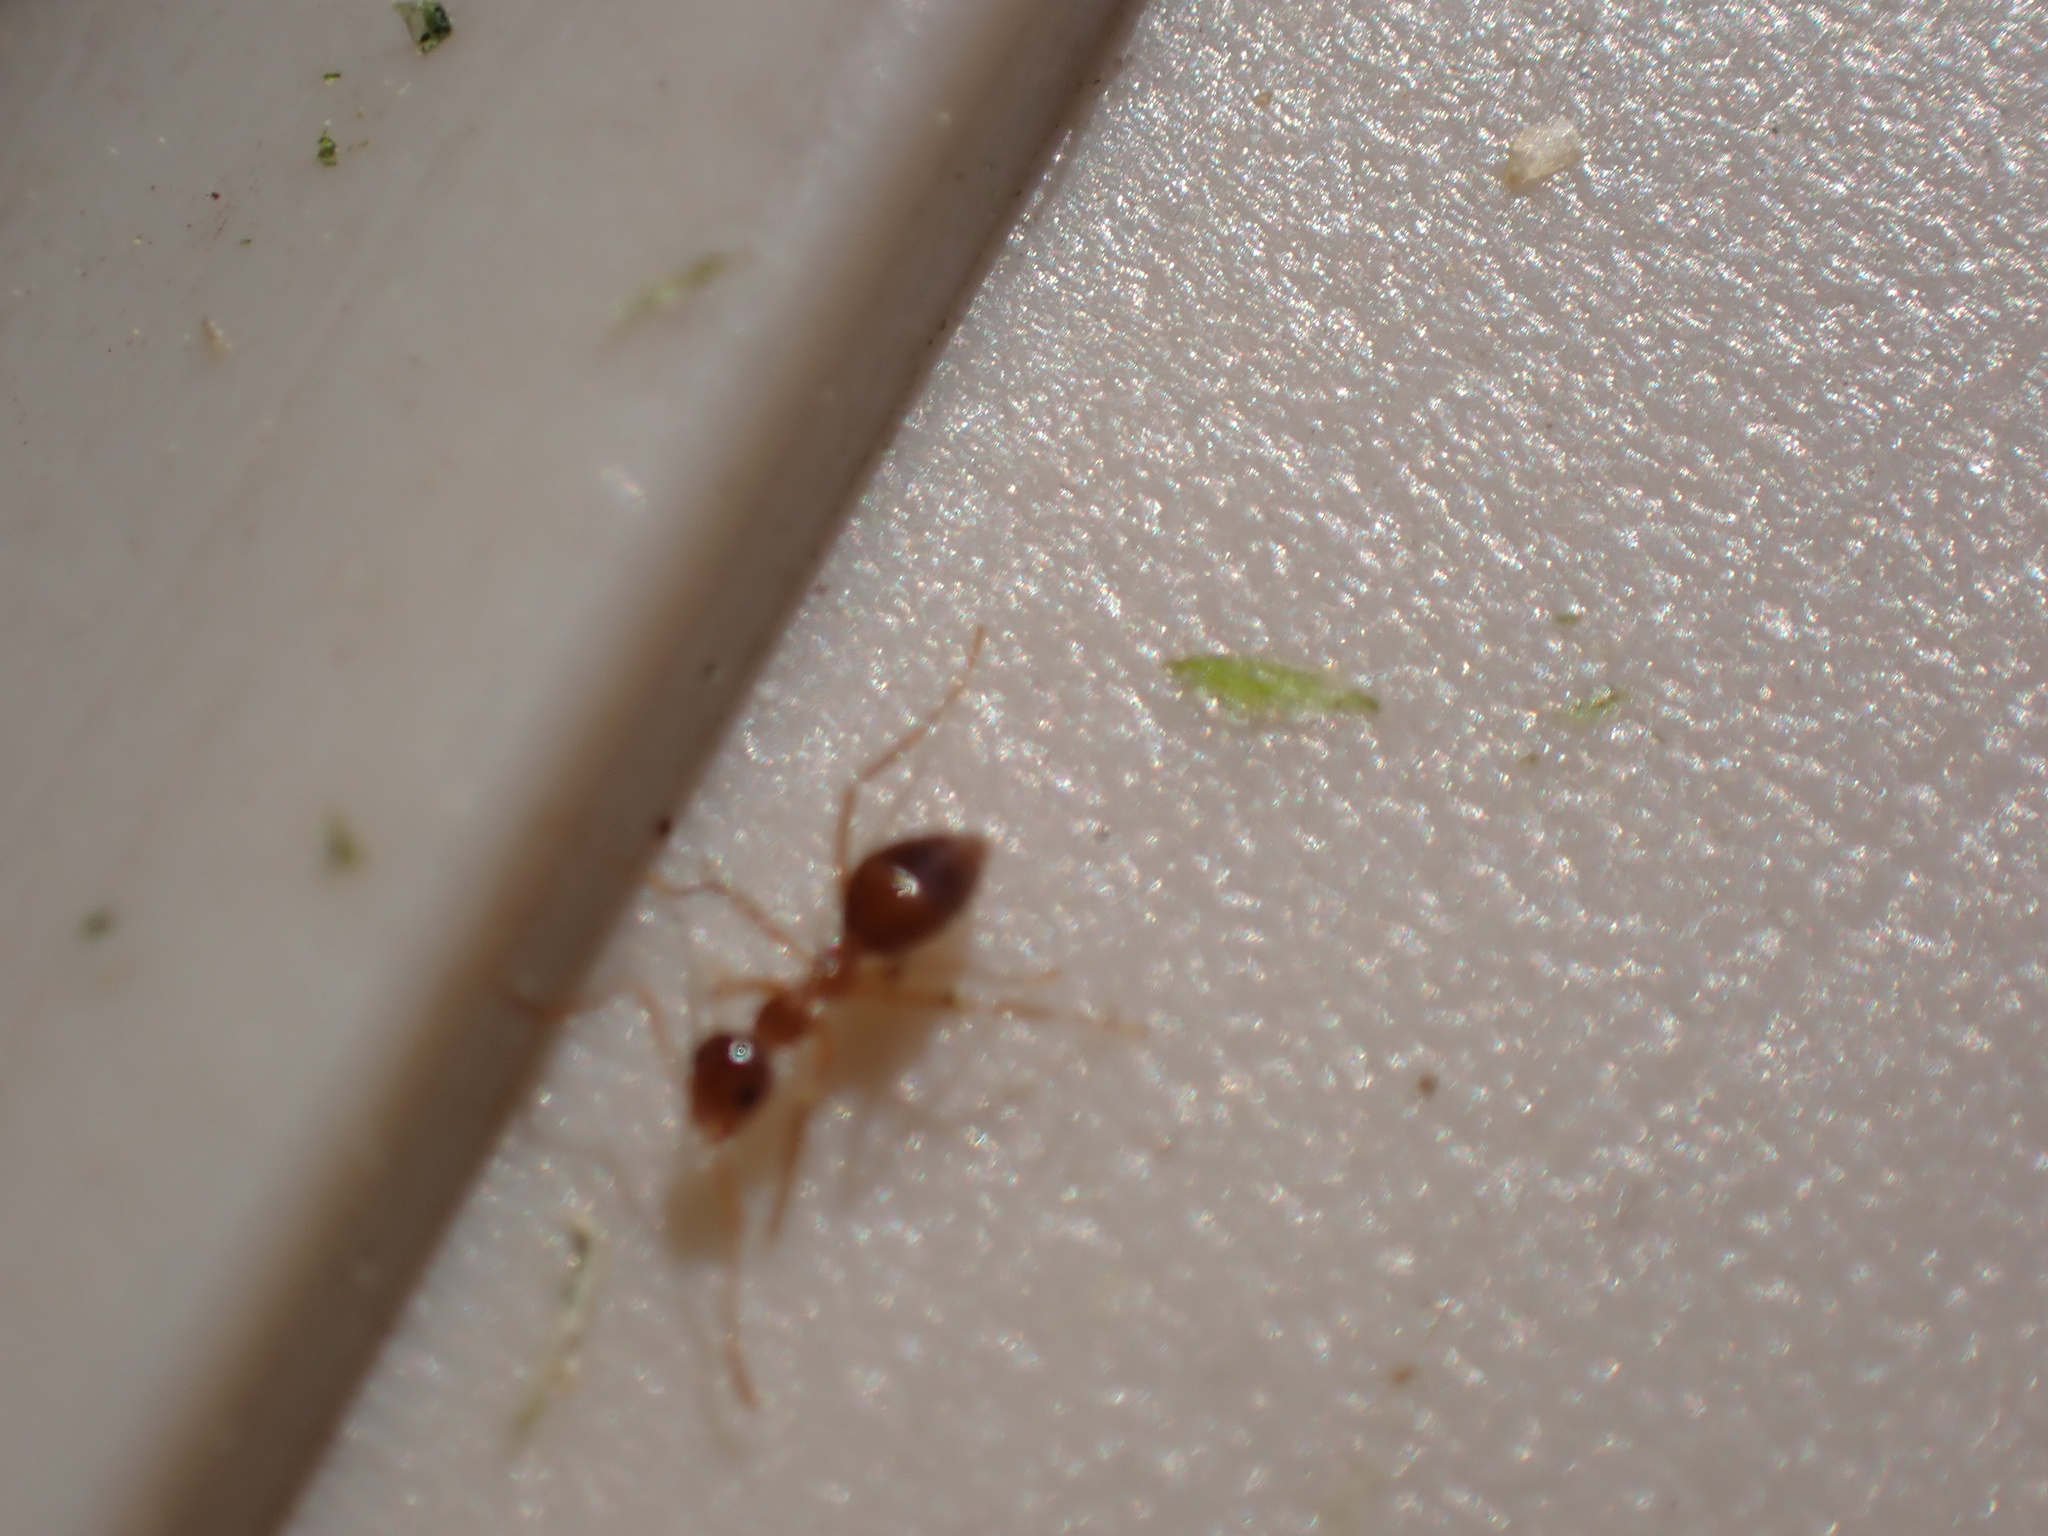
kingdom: Animalia
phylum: Arthropoda
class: Insecta
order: Hymenoptera
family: Formicidae
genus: Prenolepis
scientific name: Prenolepis imparis
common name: Small honey ant
